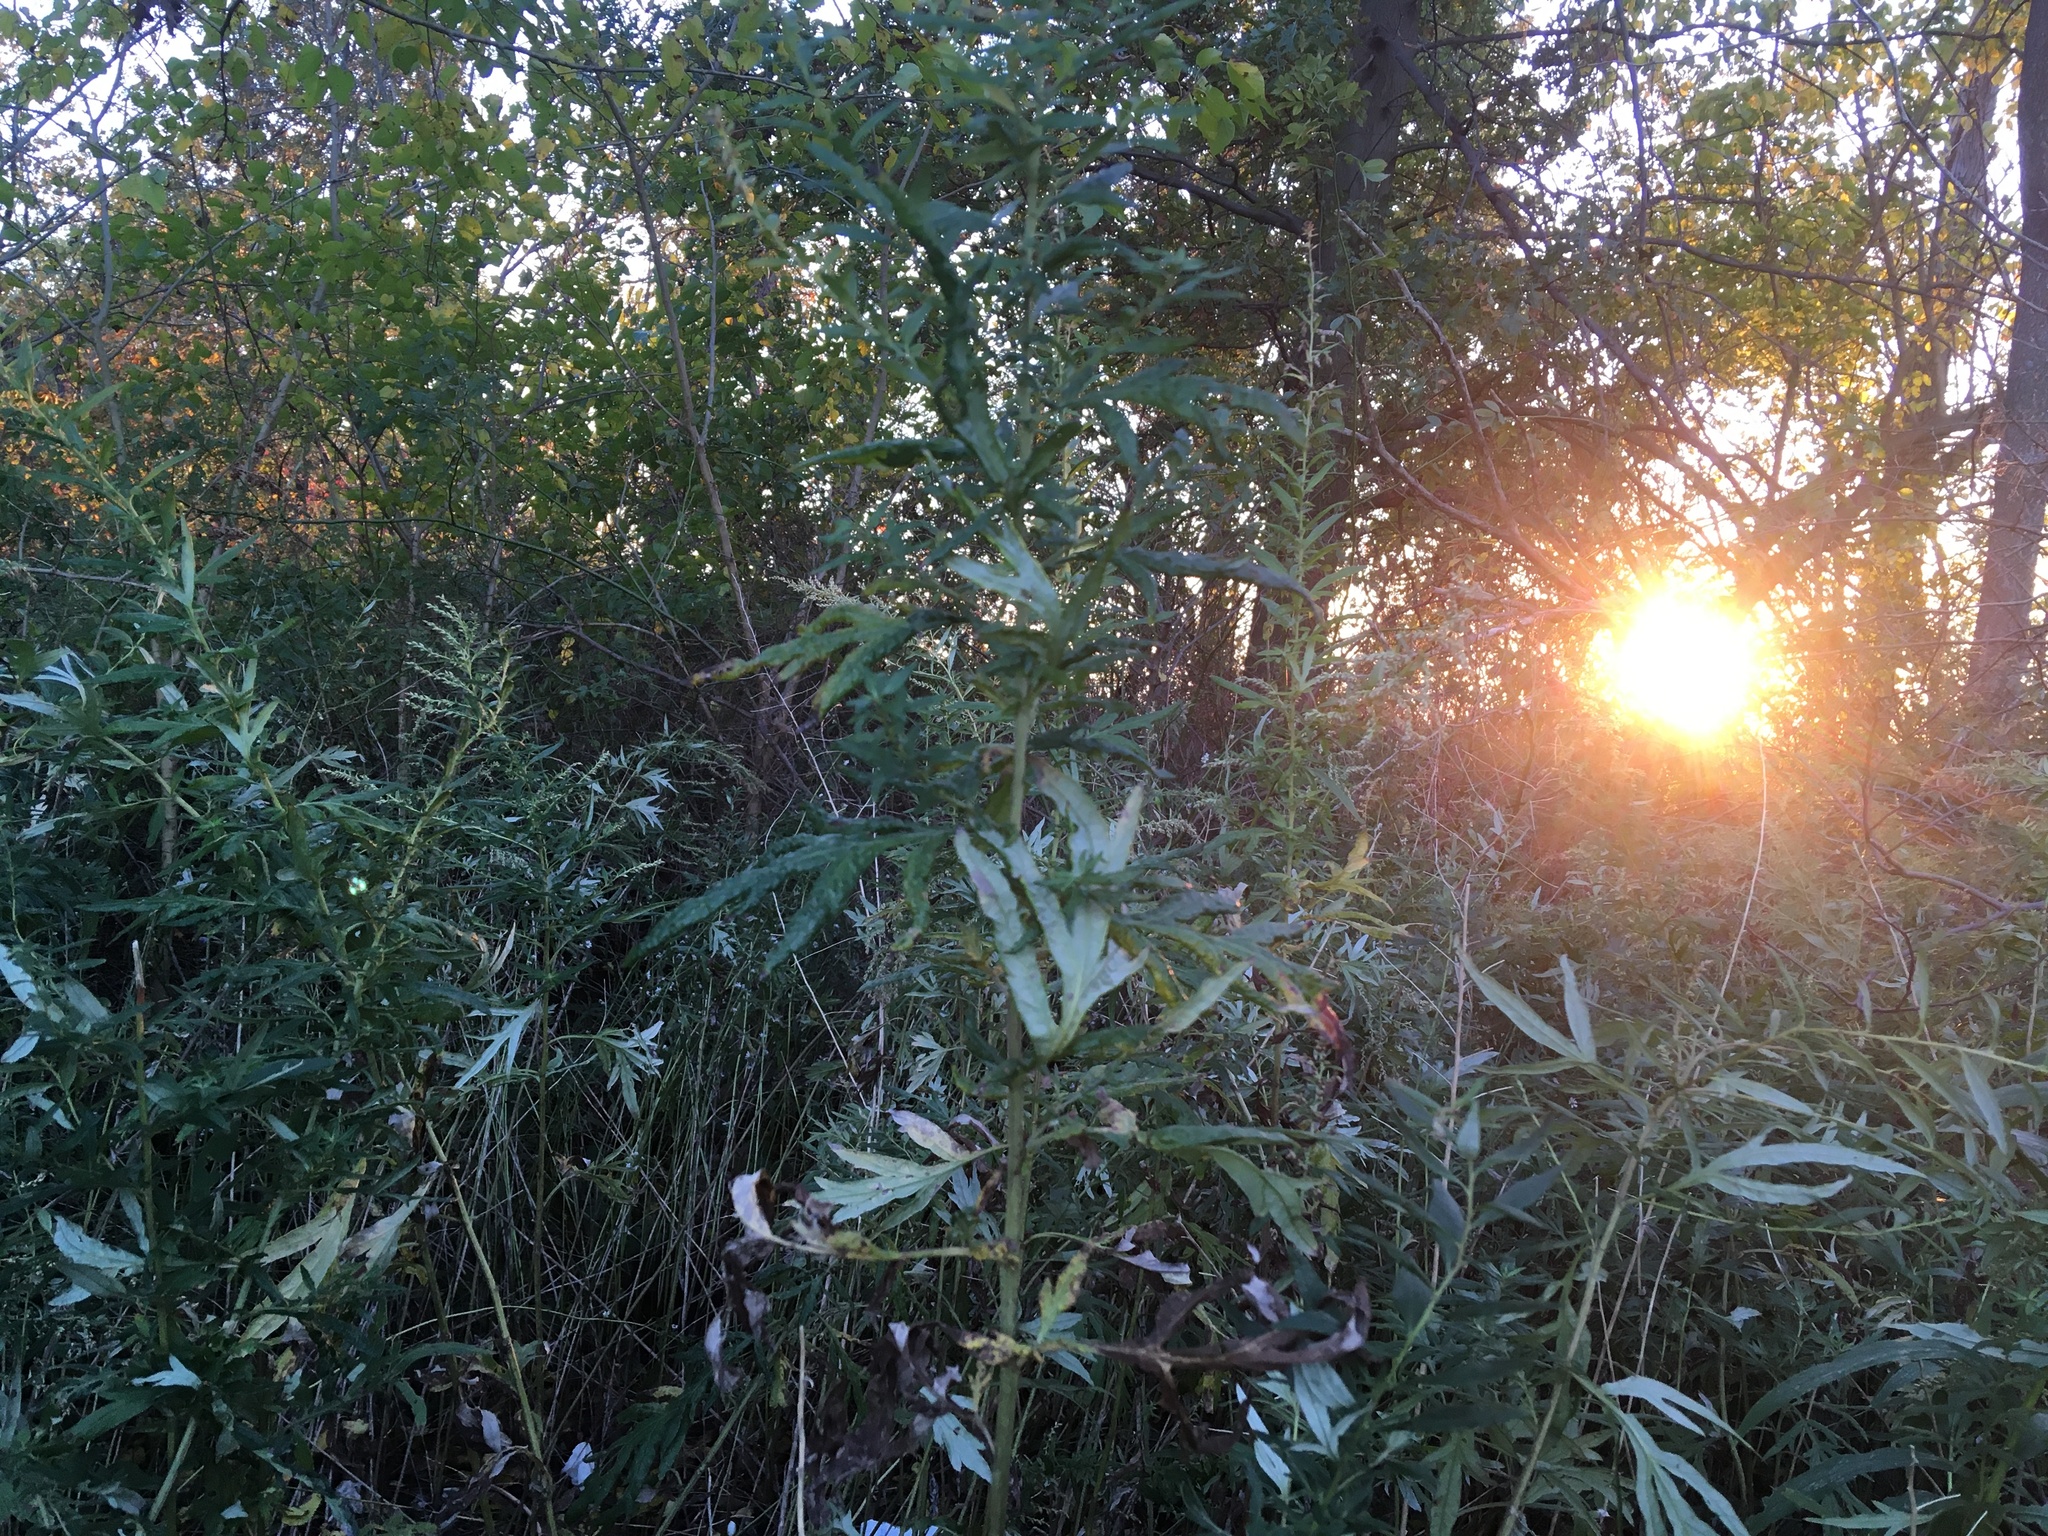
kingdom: Plantae
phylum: Tracheophyta
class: Magnoliopsida
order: Asterales
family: Asteraceae
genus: Artemisia
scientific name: Artemisia vulgaris
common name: Mugwort
